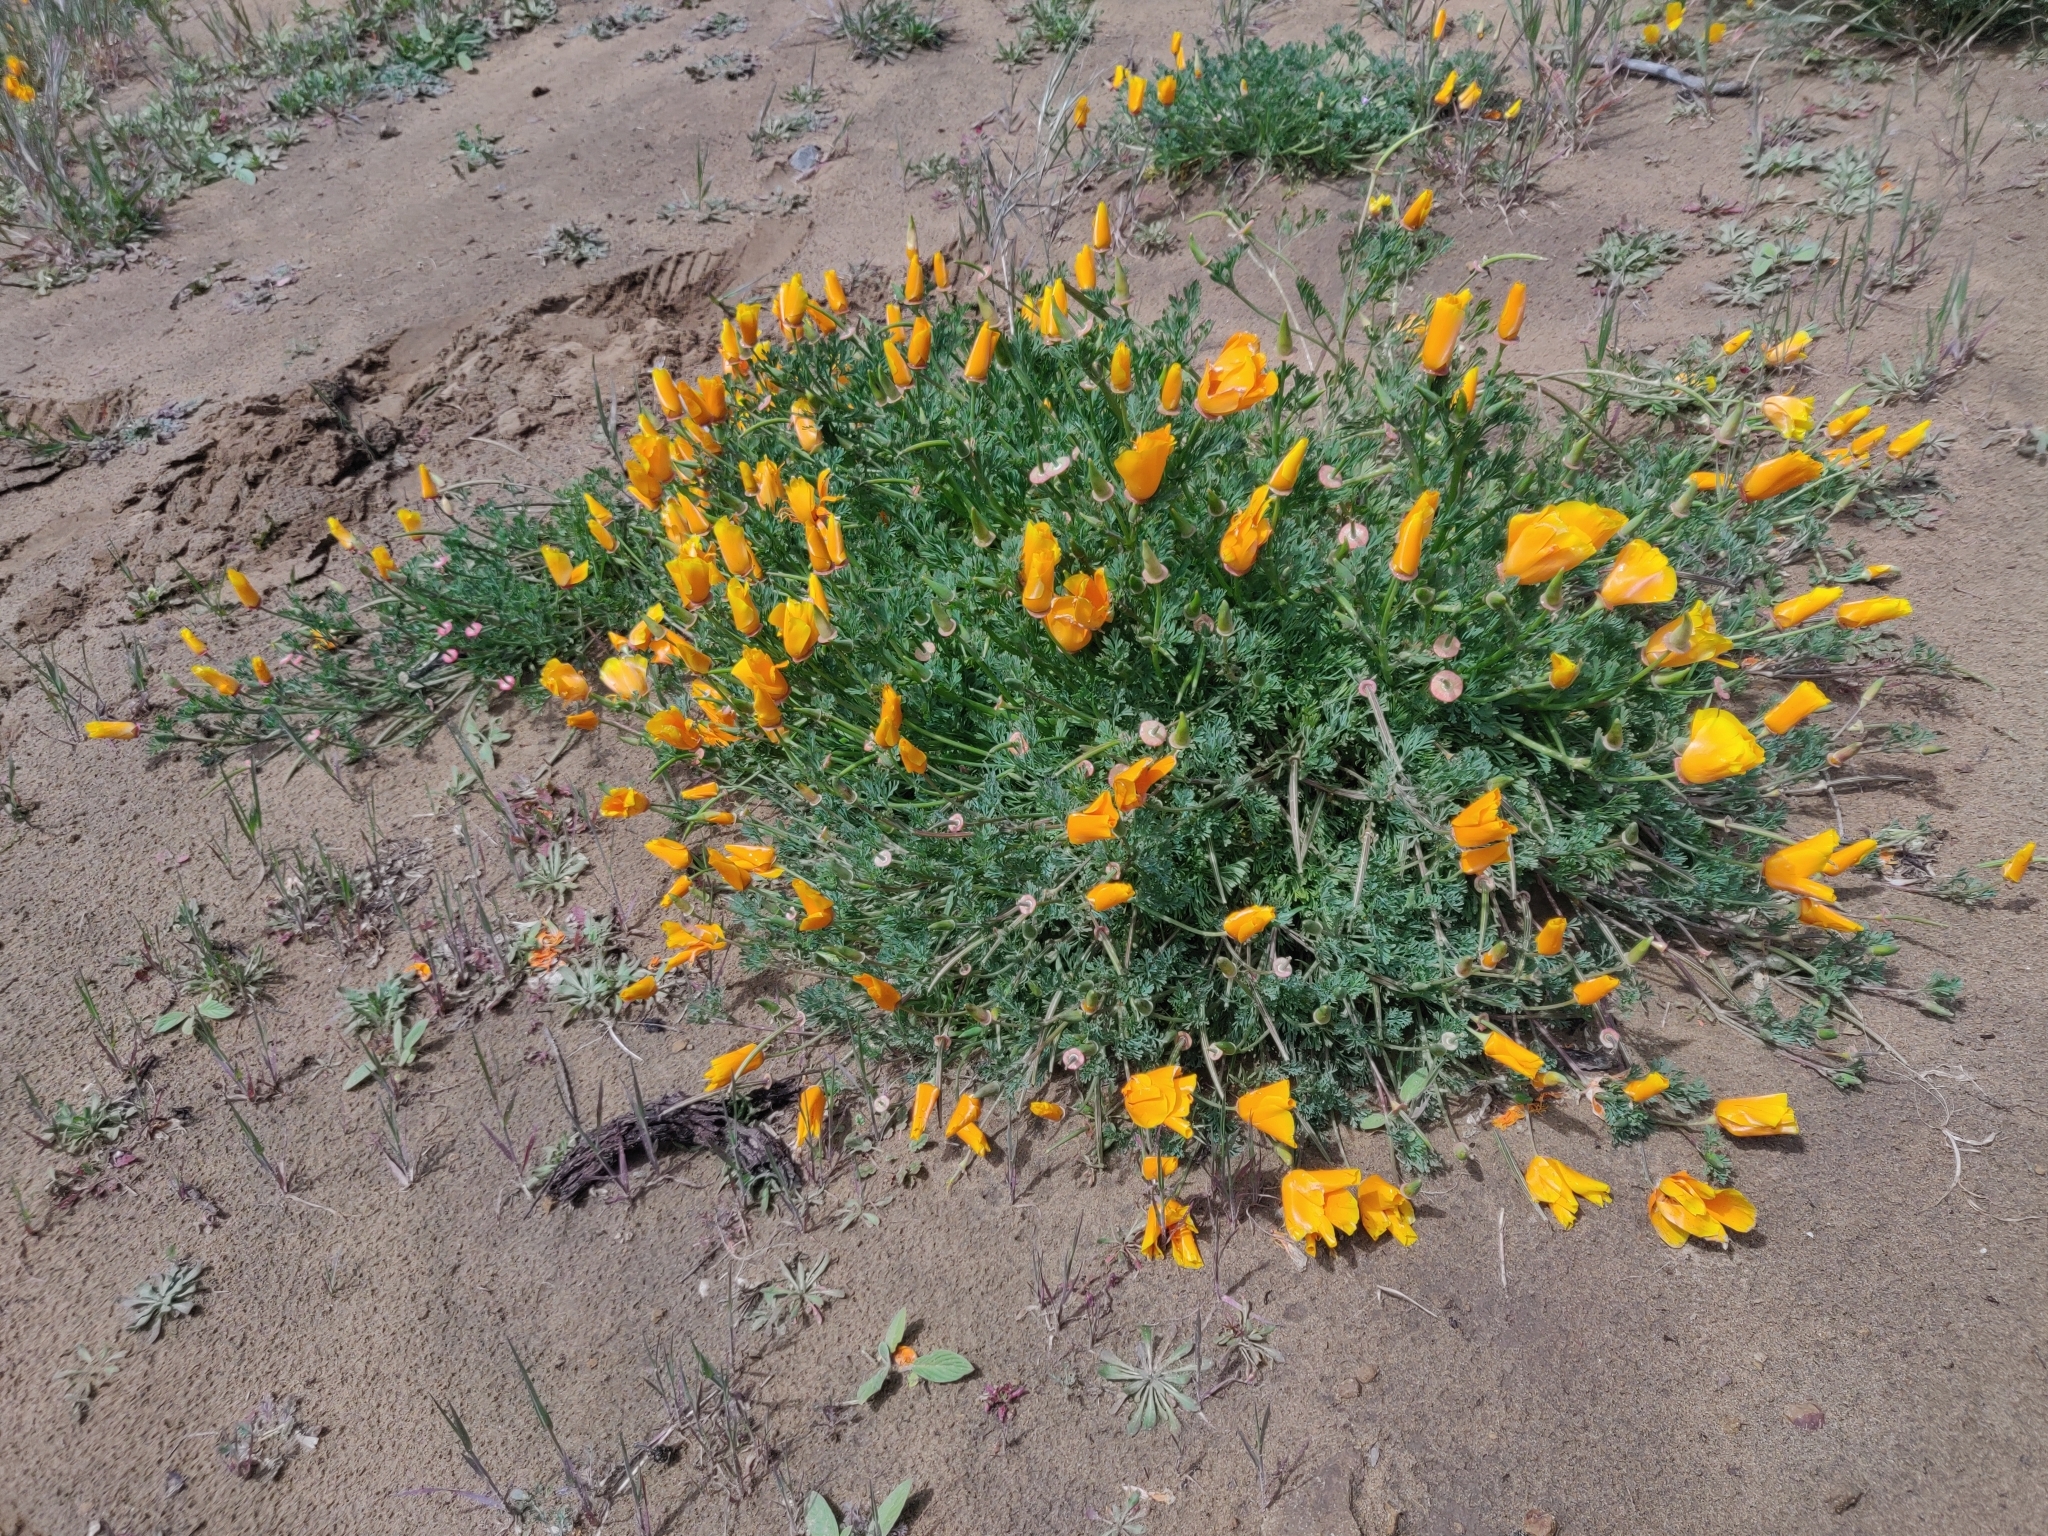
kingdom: Plantae
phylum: Tracheophyta
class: Magnoliopsida
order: Ranunculales
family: Papaveraceae
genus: Eschscholzia
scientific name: Eschscholzia californica
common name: California poppy
